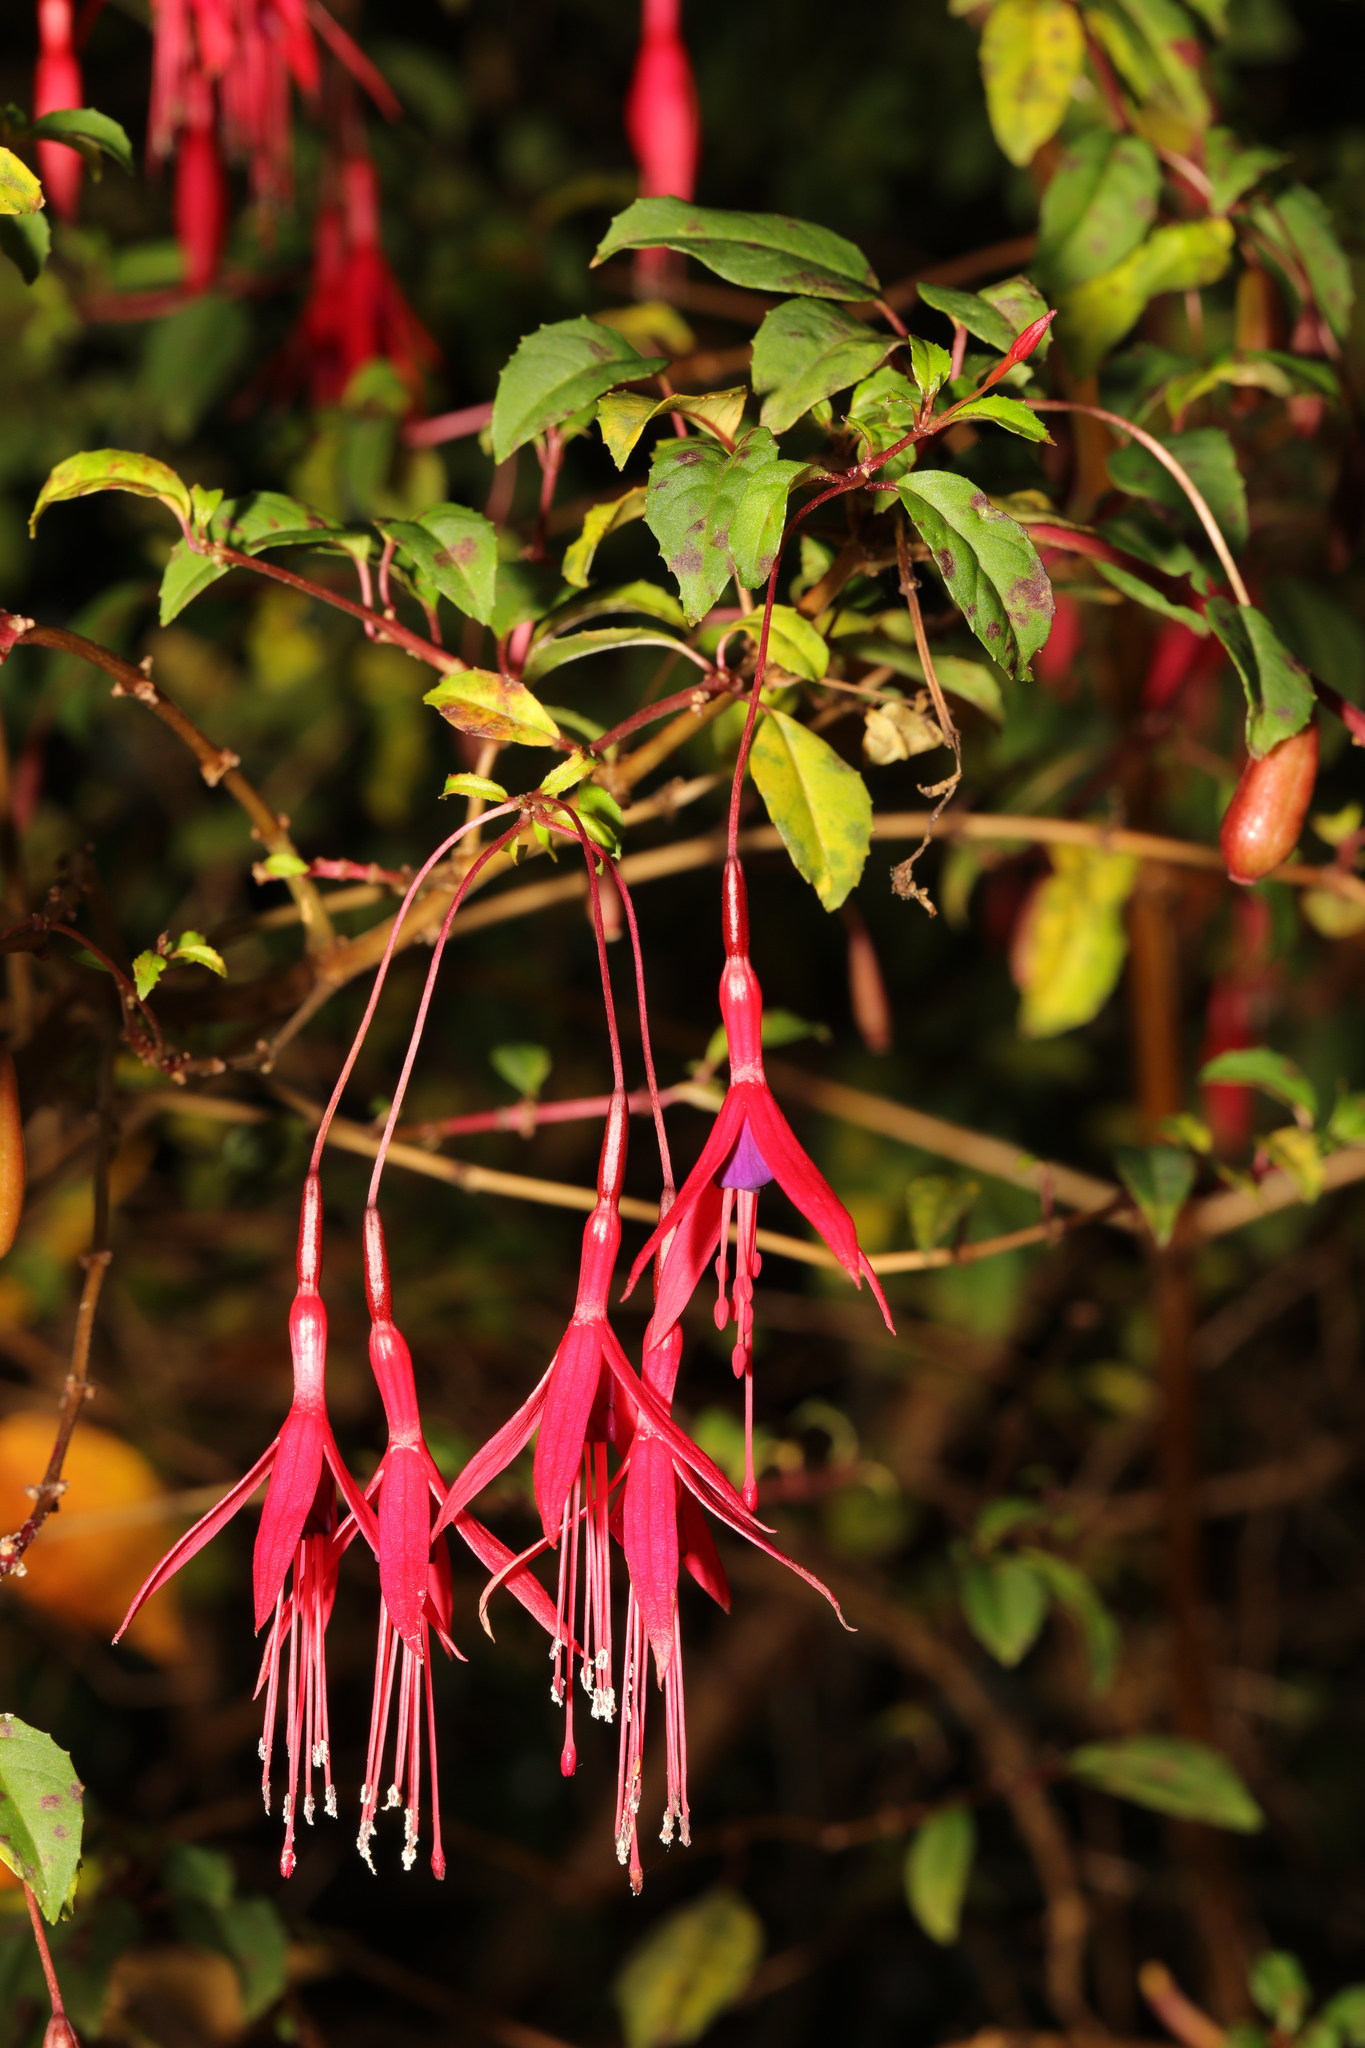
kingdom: Plantae
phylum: Tracheophyta
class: Magnoliopsida
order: Myrtales
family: Onagraceae
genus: Fuchsia
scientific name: Fuchsia magellanica
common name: Hardy fuchsia
